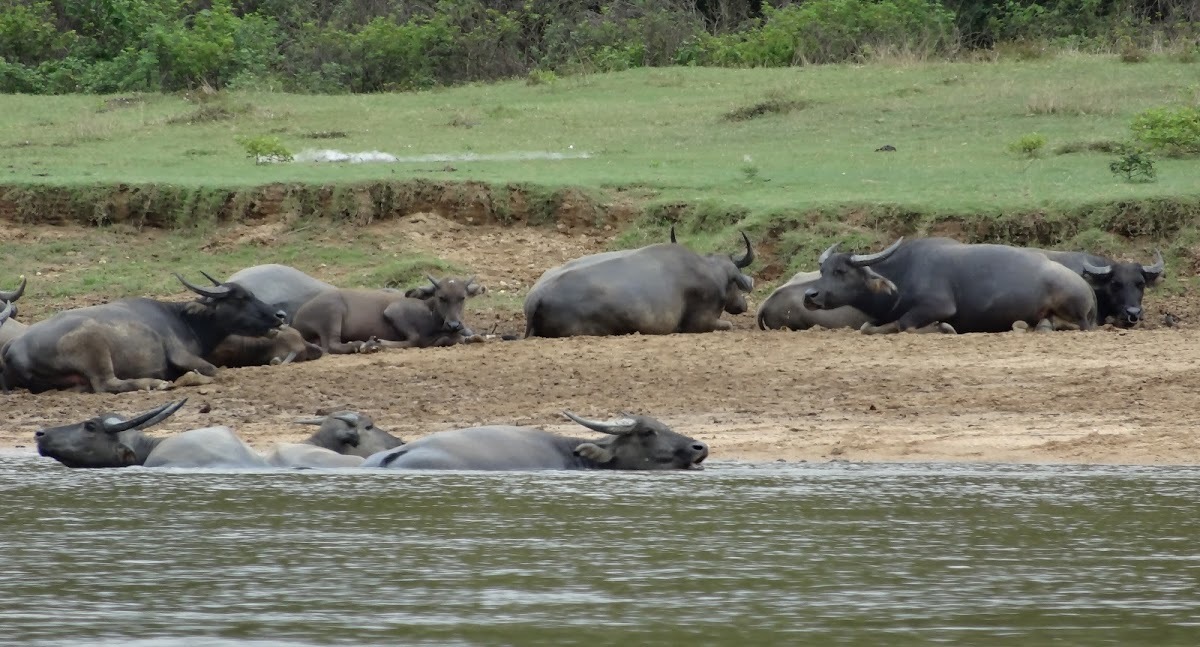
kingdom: Animalia
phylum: Chordata
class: Mammalia
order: Artiodactyla
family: Bovidae
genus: Bubalus
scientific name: Bubalus bubalis
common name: Water buffalo
